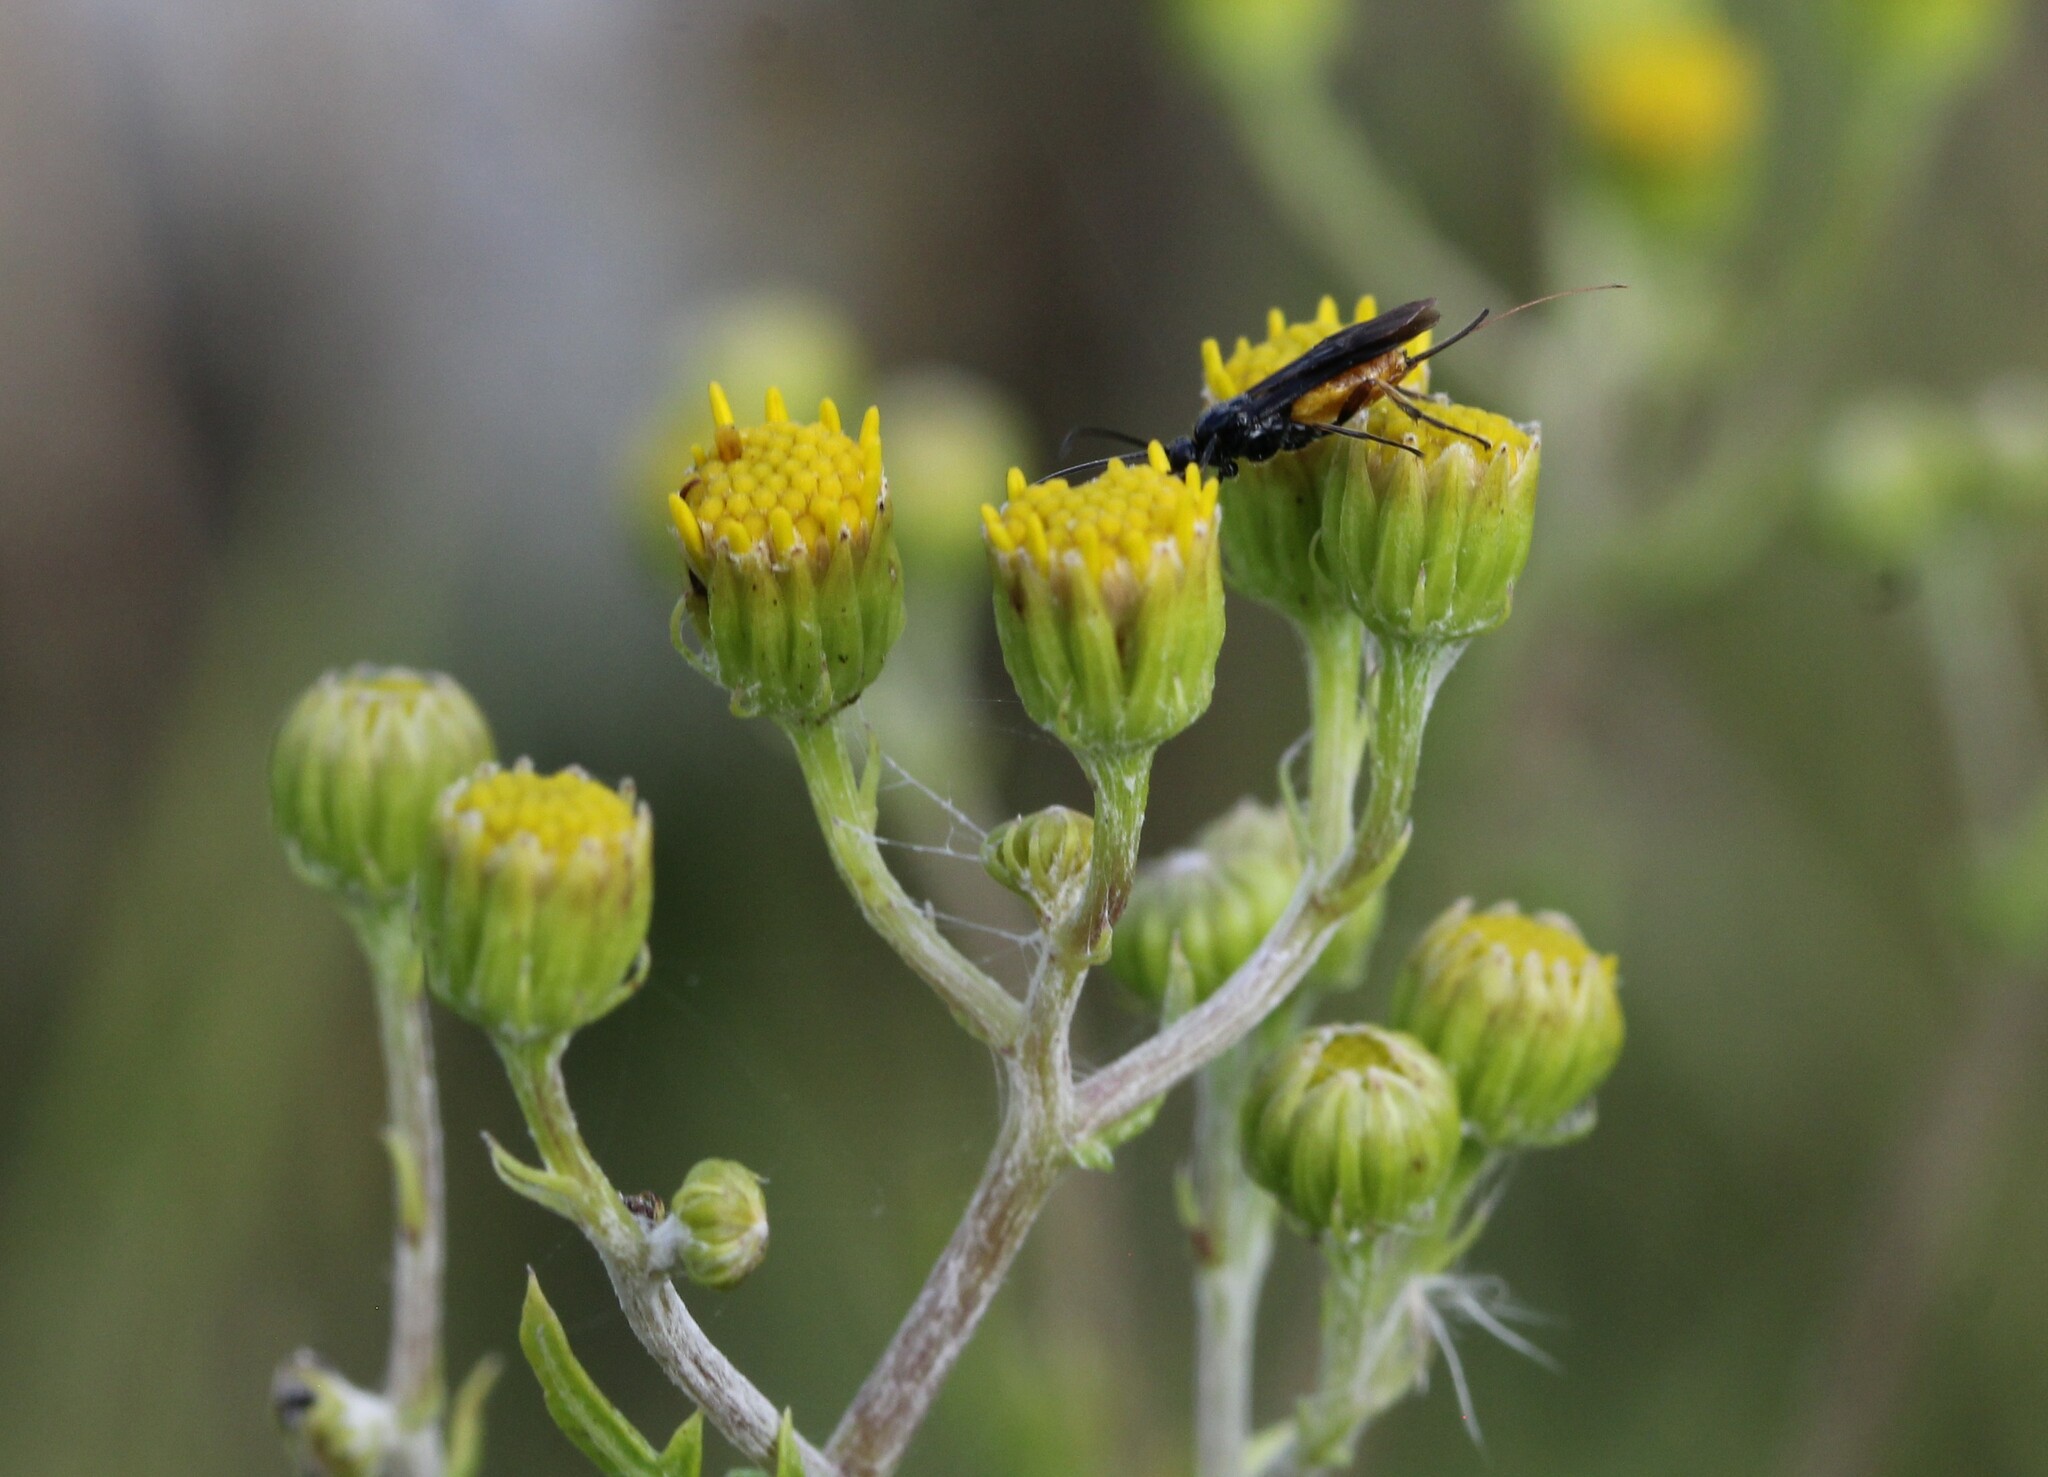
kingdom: Plantae
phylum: Tracheophyta
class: Magnoliopsida
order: Asterales
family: Asteraceae
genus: Jacobaea
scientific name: Jacobaea erucifolia
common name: Hoary ragwort
